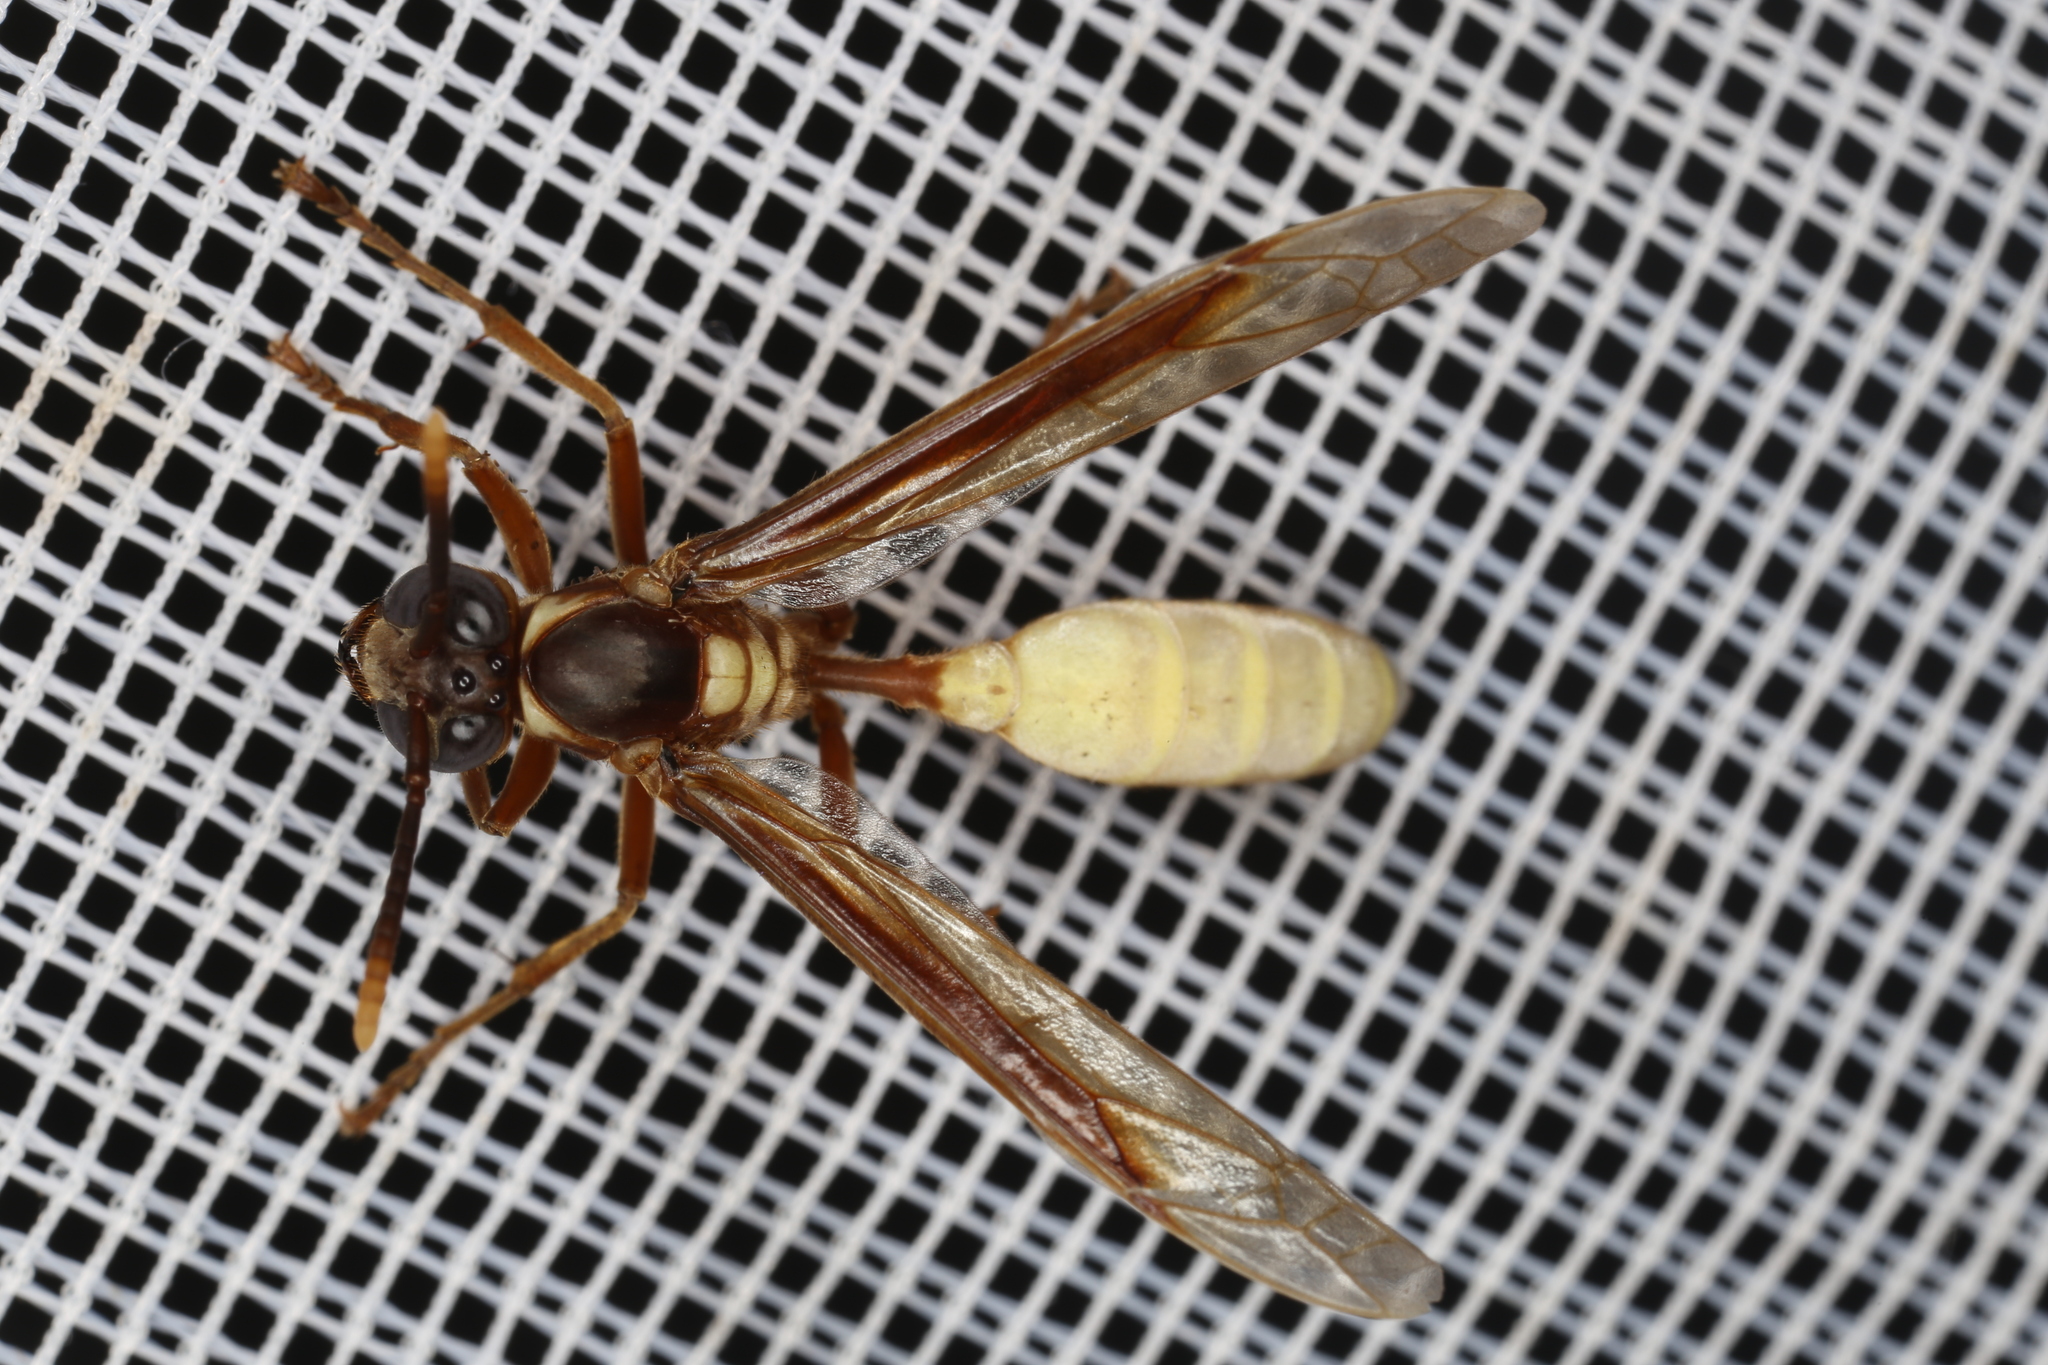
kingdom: Animalia
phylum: Arthropoda
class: Insecta
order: Hymenoptera
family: Vespidae
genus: Apoica
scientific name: Apoica pallens
